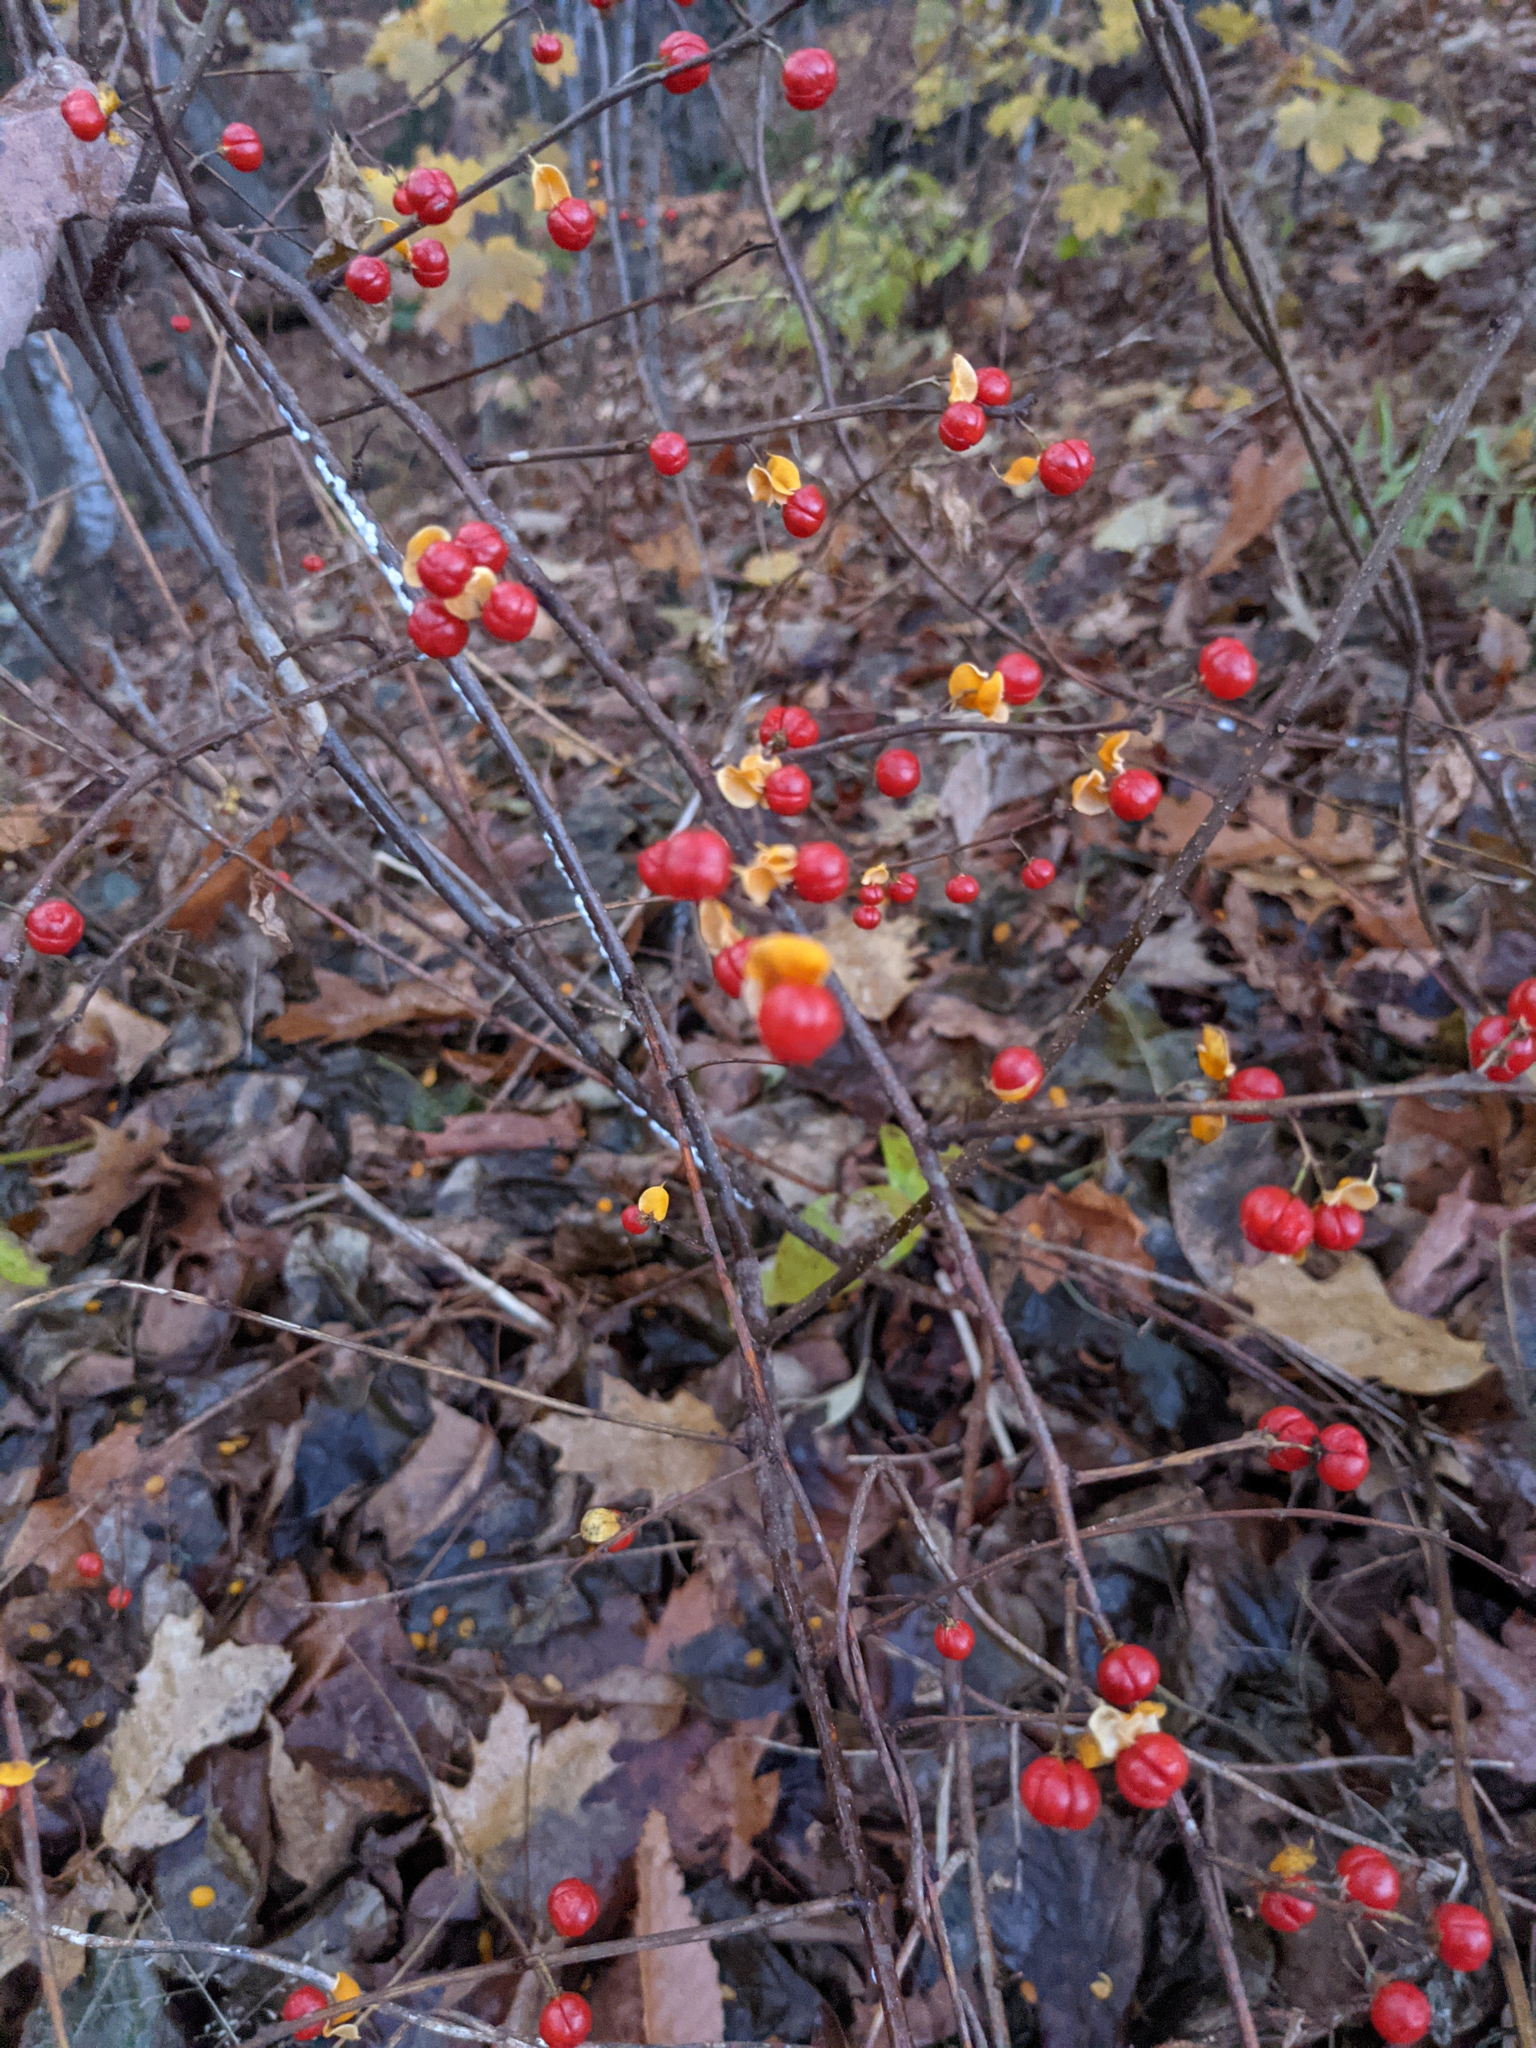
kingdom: Plantae
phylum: Tracheophyta
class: Magnoliopsida
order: Celastrales
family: Celastraceae
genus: Celastrus
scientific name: Celastrus orbiculatus
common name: Oriental bittersweet
